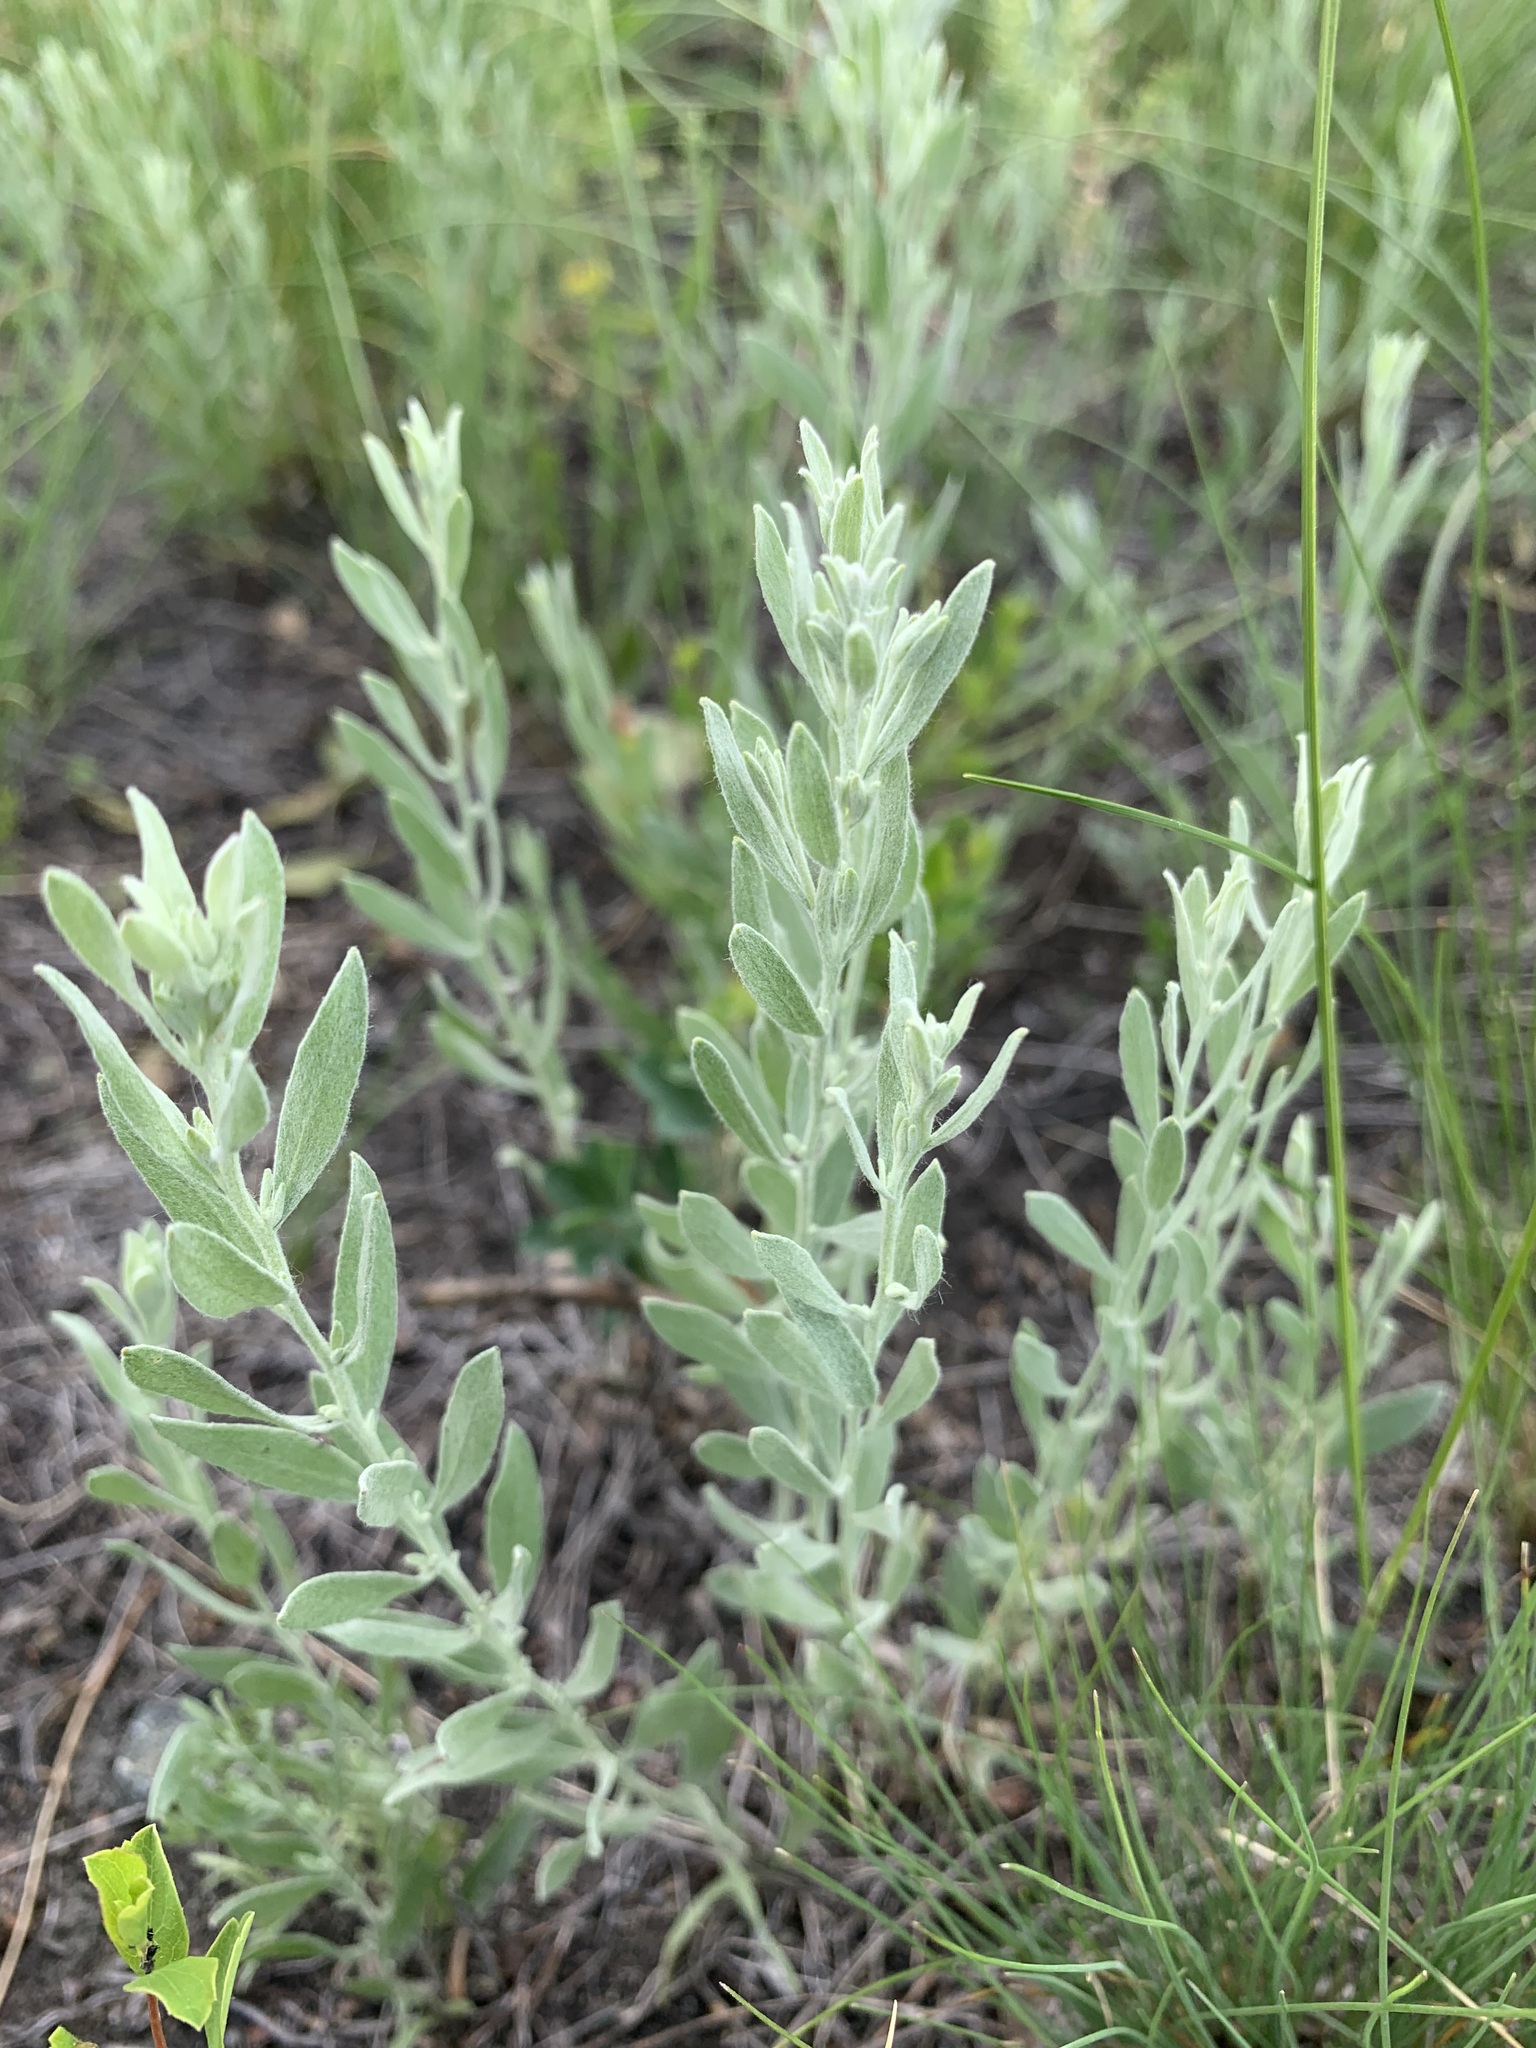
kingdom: Plantae
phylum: Tracheophyta
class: Magnoliopsida
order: Asterales
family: Asteraceae
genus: Galatella
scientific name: Galatella villosa
